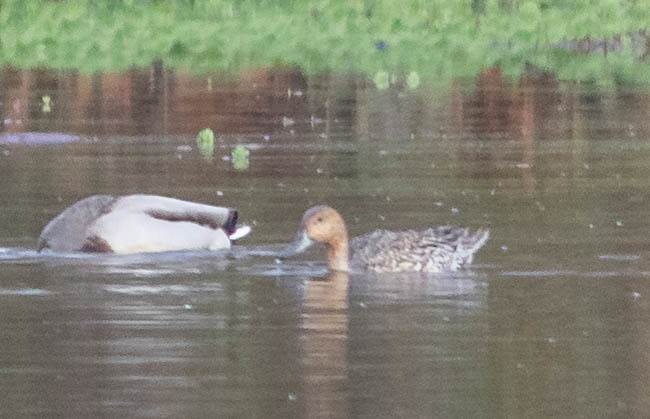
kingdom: Animalia
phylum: Chordata
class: Aves
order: Anseriformes
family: Anatidae
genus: Anas
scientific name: Anas acuta
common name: Northern pintail
